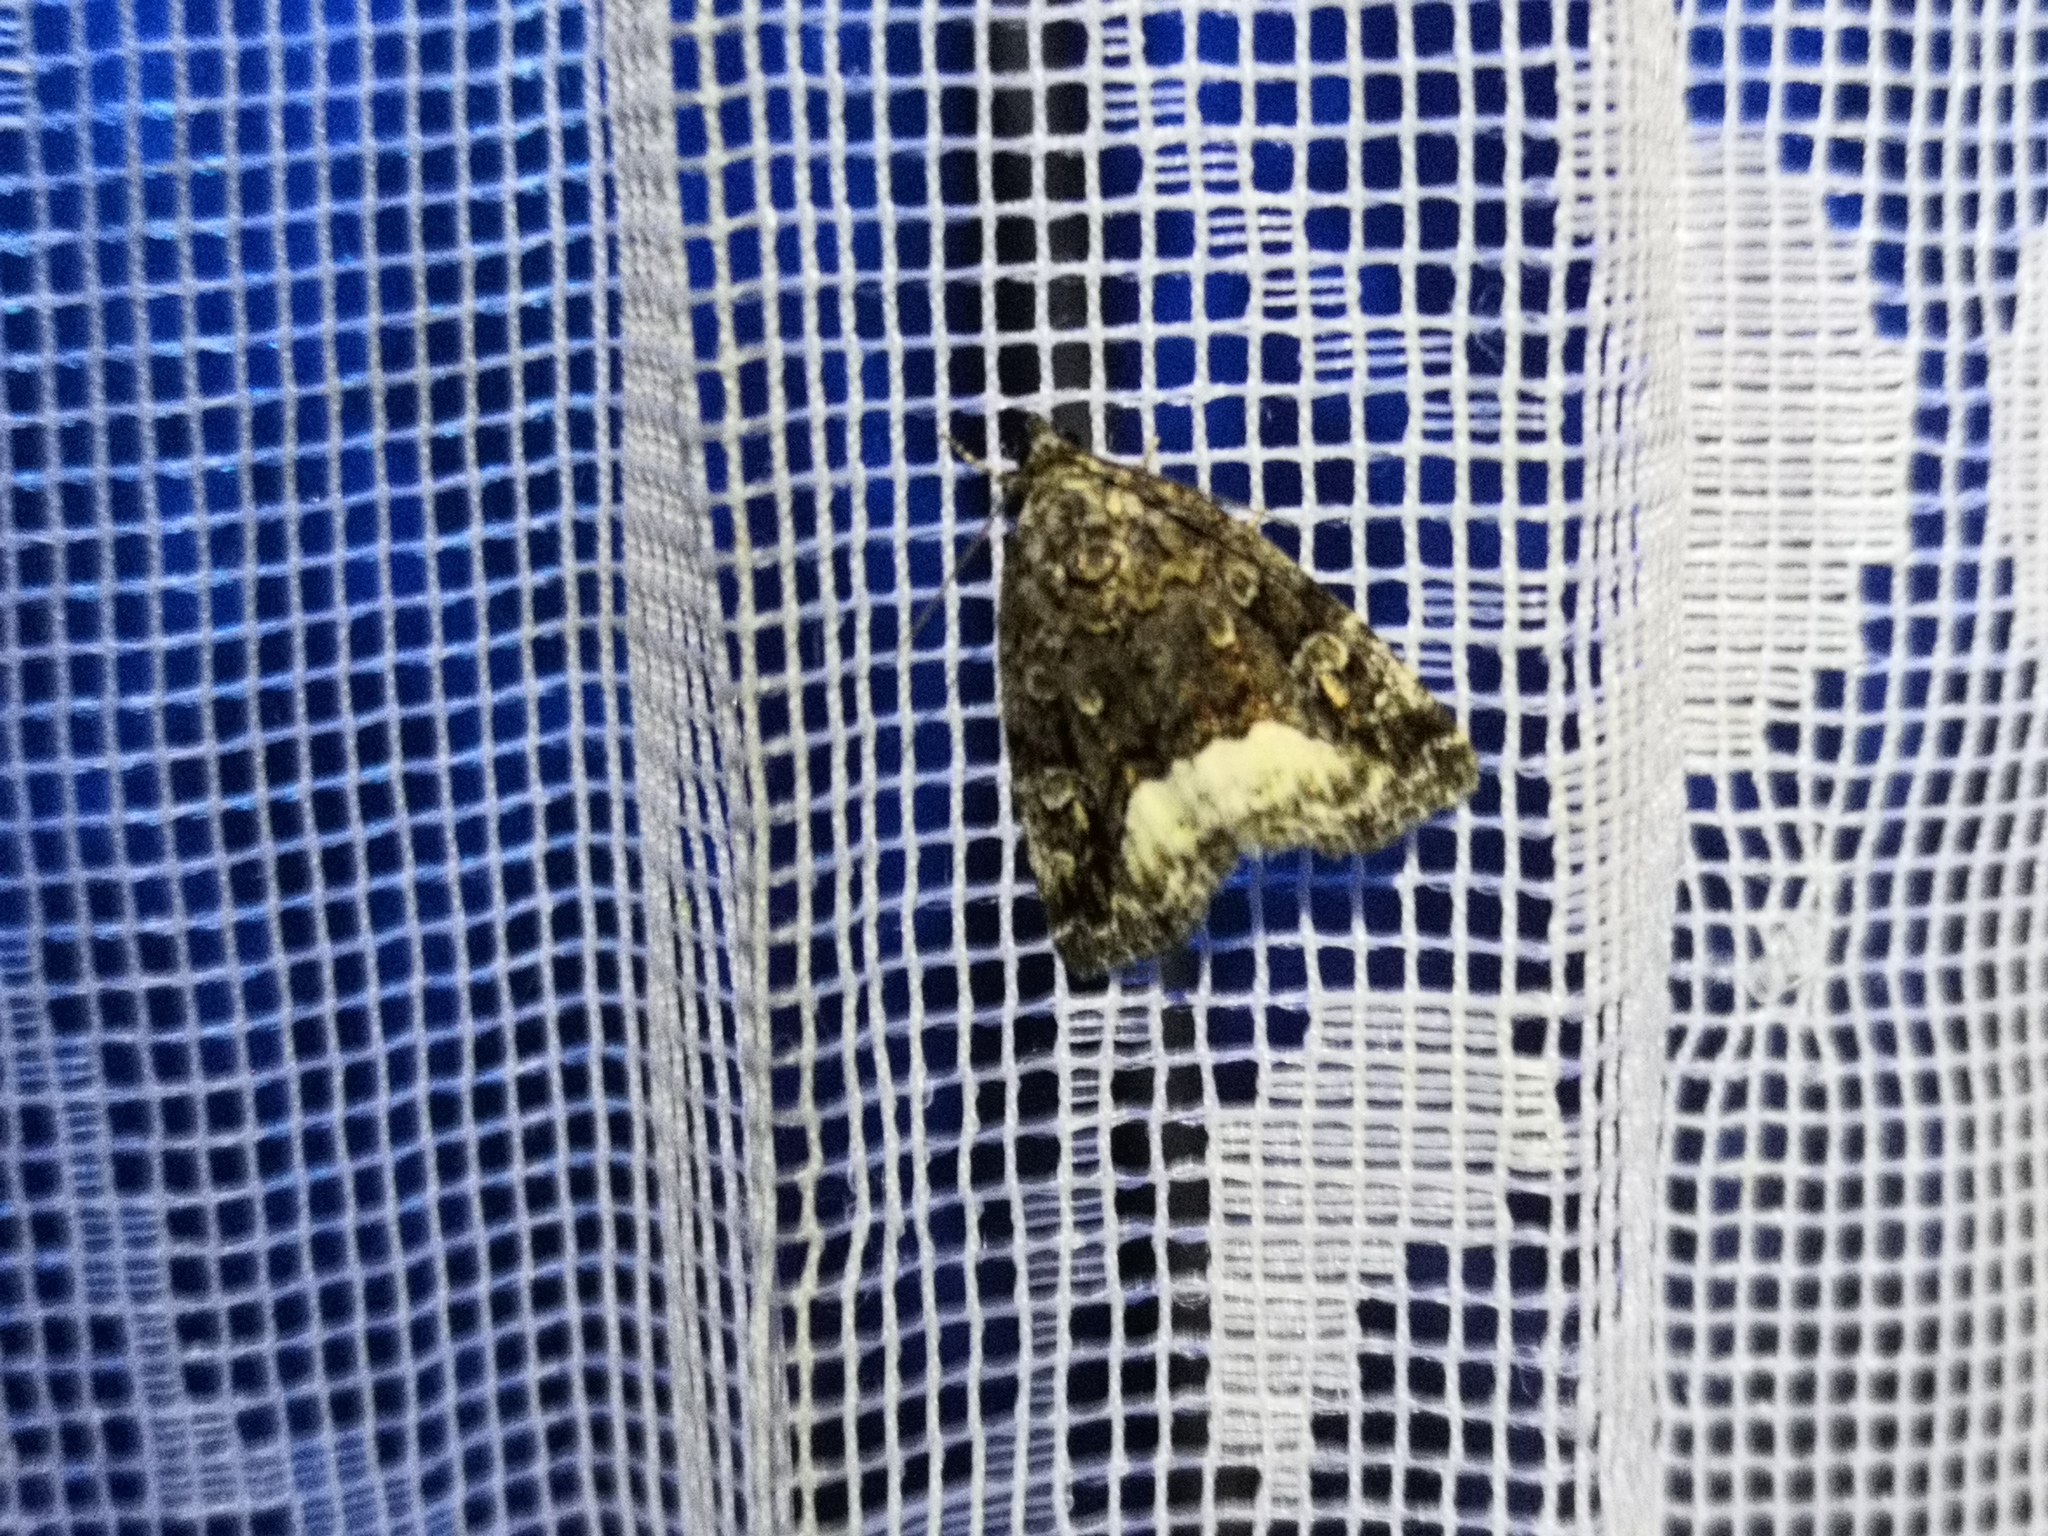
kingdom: Animalia
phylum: Arthropoda
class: Insecta
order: Lepidoptera
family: Noctuidae
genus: Deltote
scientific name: Deltote pygarga
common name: Marbled white spot
